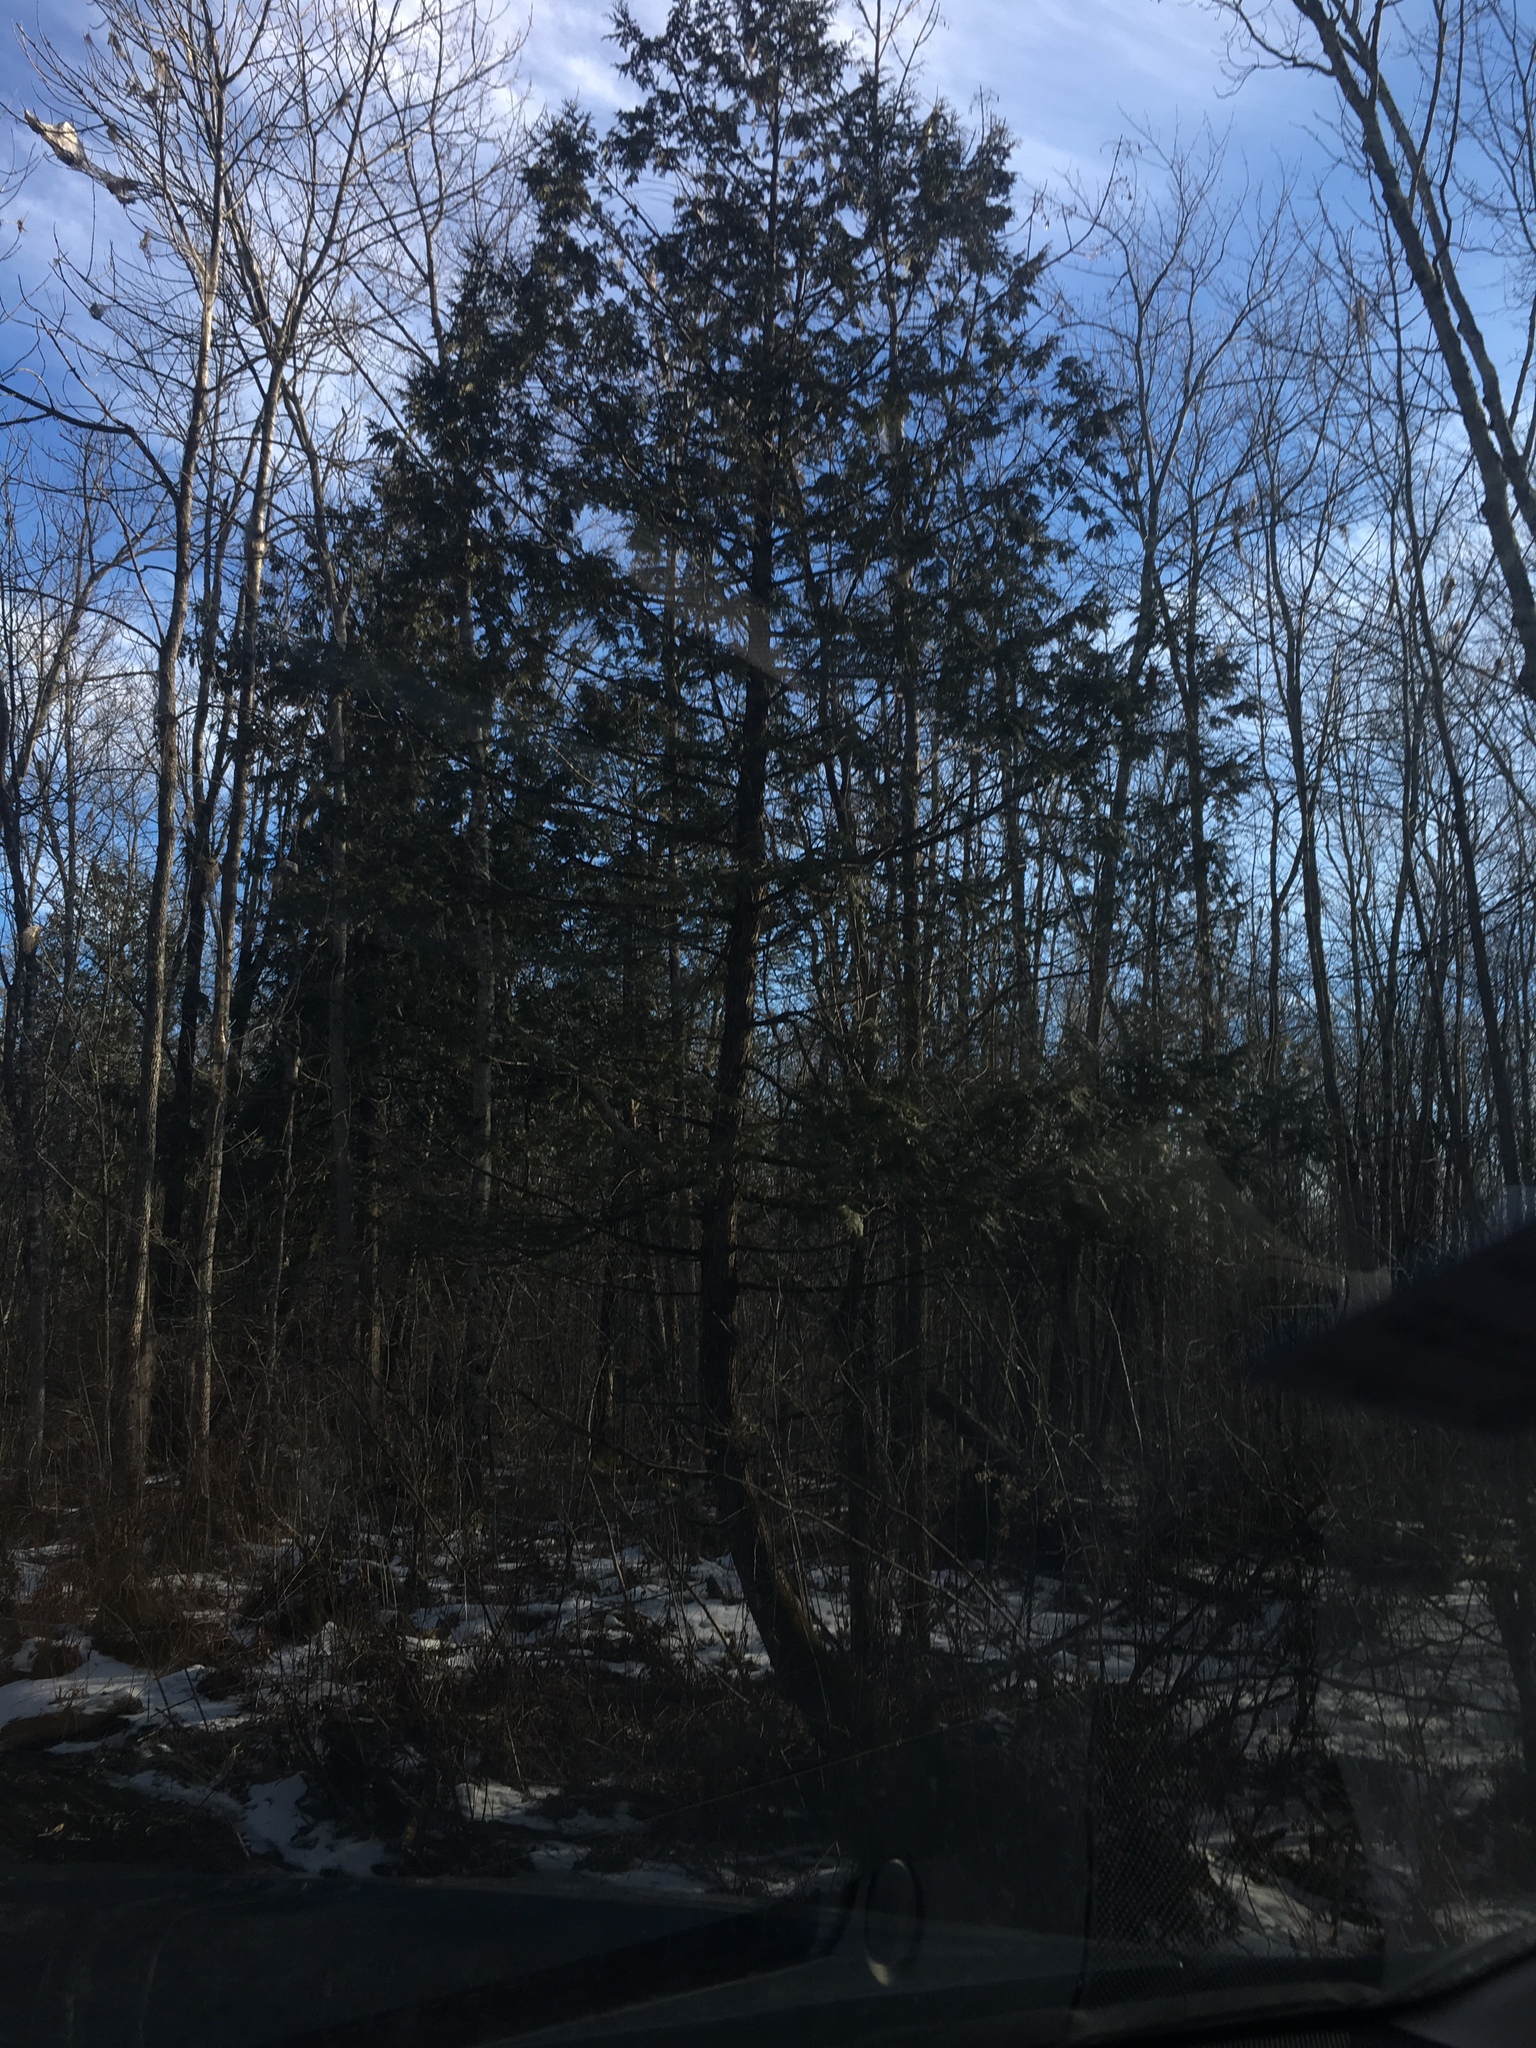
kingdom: Plantae
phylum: Tracheophyta
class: Pinopsida
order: Pinales
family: Cupressaceae
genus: Thuja
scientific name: Thuja occidentalis
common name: Northern white-cedar
